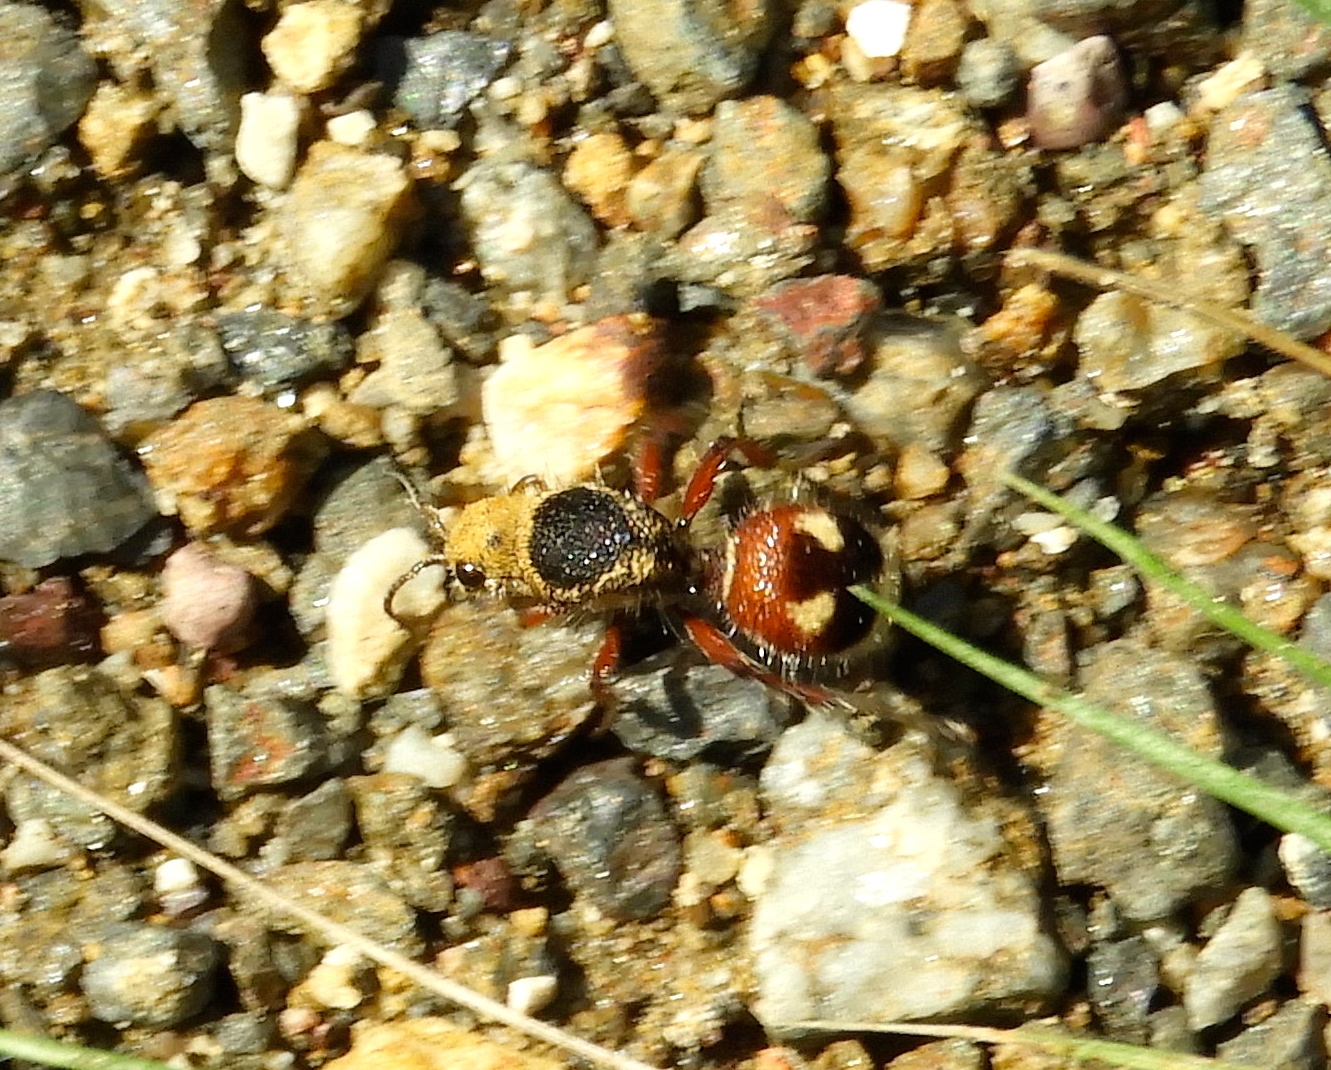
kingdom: Animalia
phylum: Arthropoda
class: Insecta
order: Hymenoptera
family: Mutillidae
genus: Dasymutilla
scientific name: Dasymutilla
